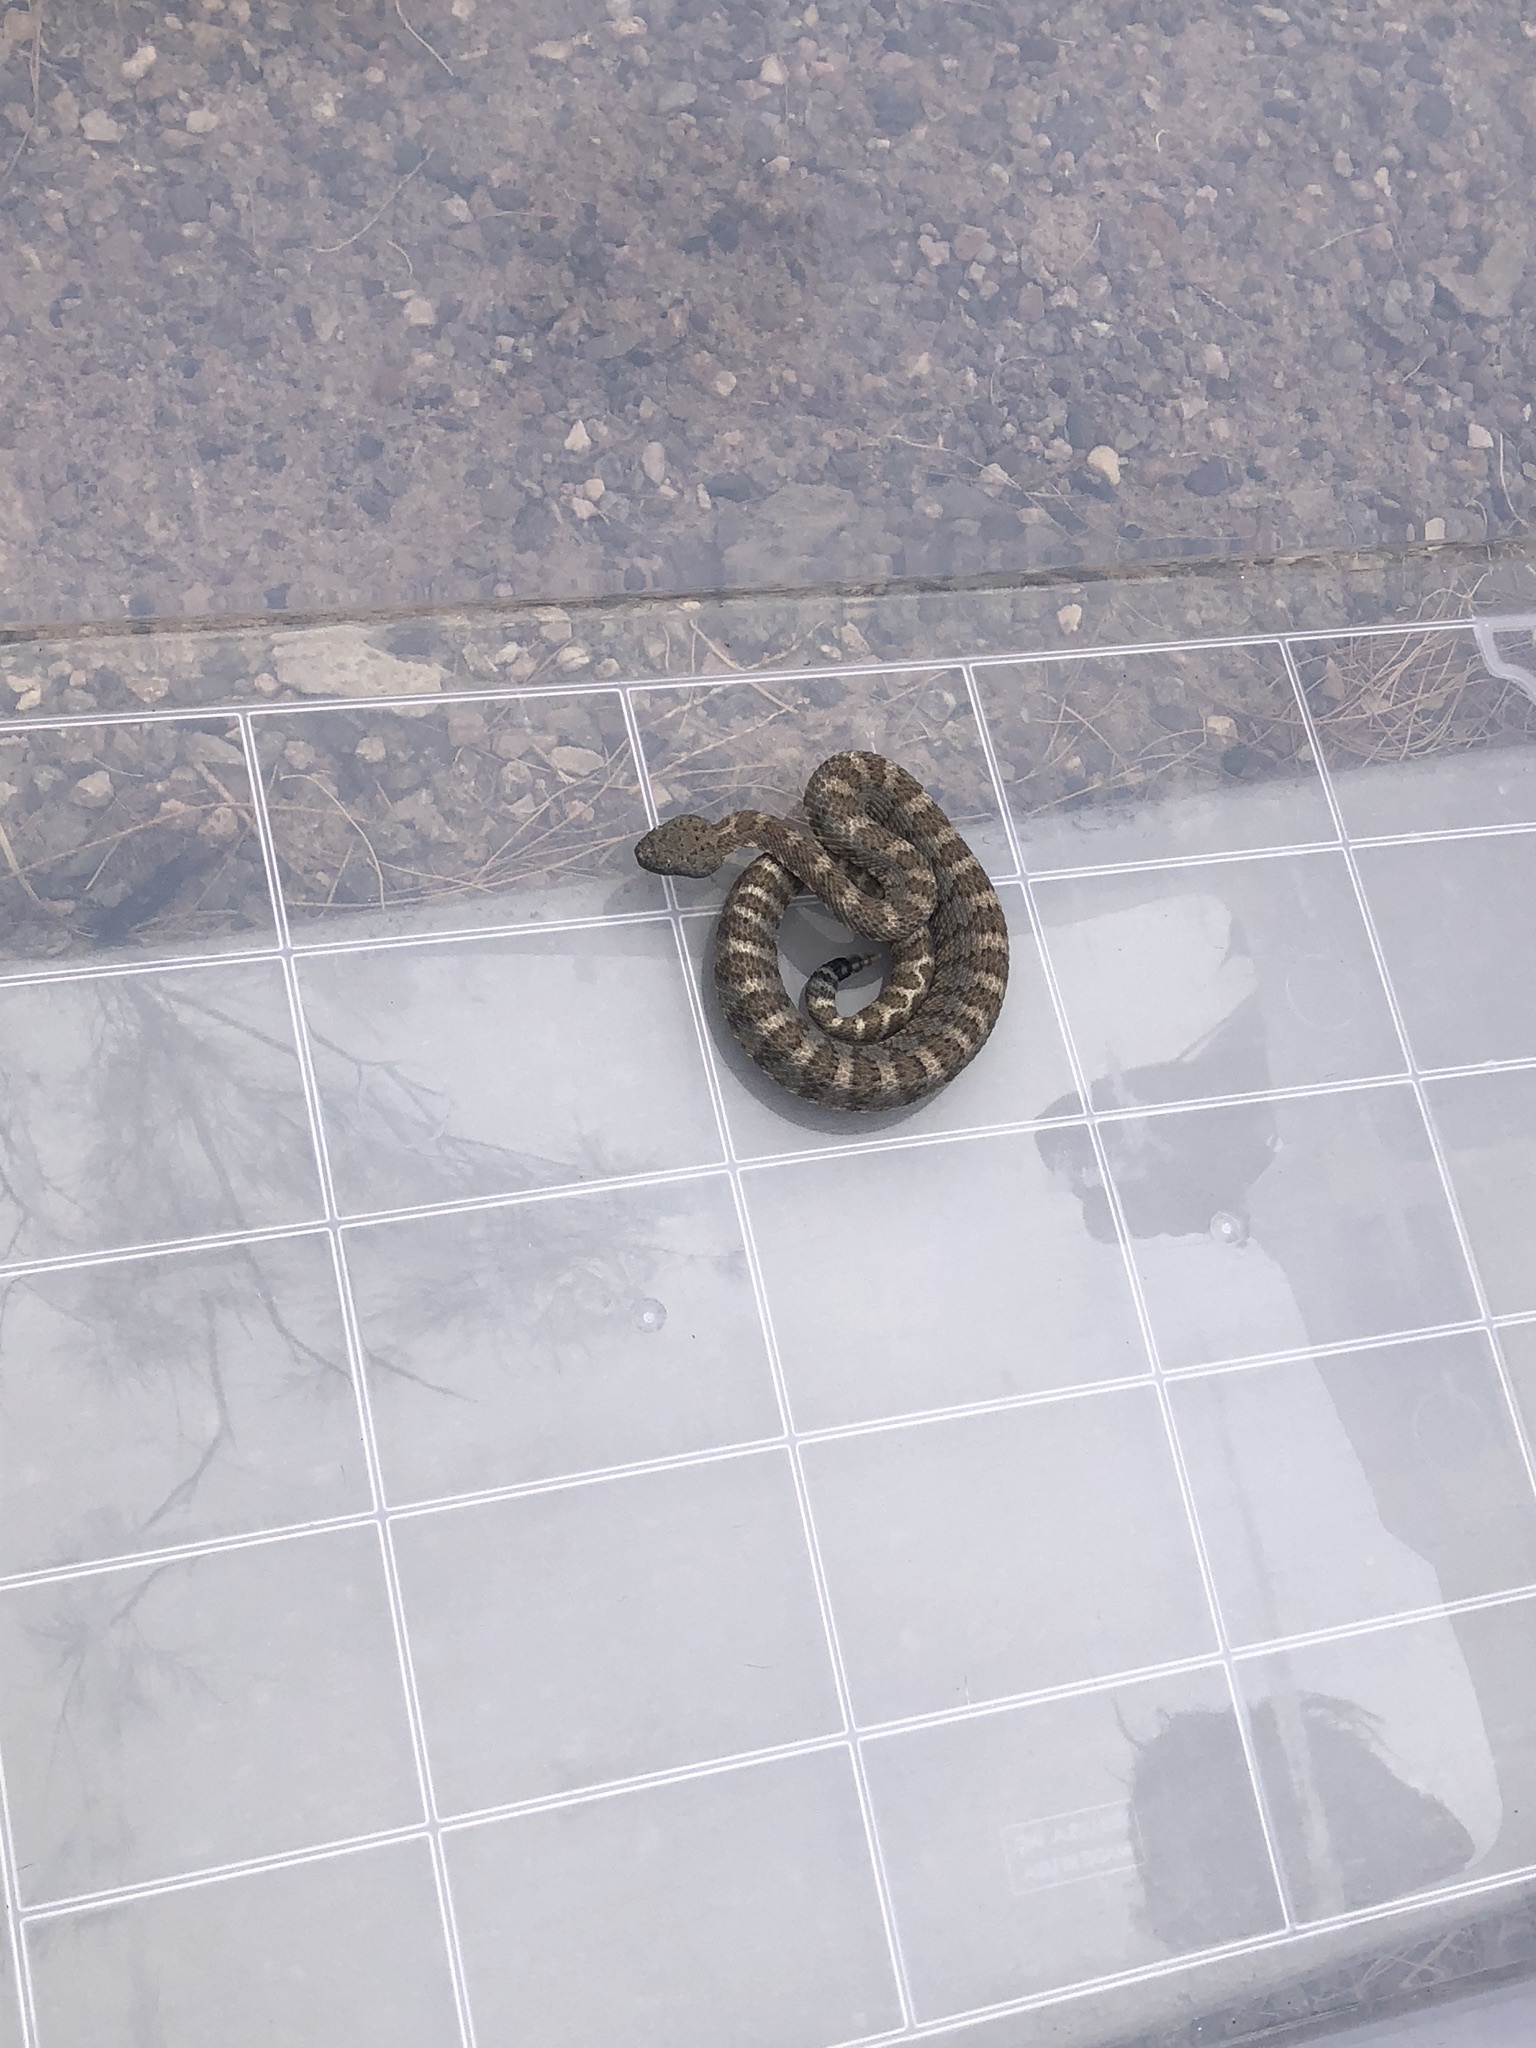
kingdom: Animalia
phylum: Chordata
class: Squamata
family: Viperidae
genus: Crotalus
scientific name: Crotalus stephensi
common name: Panamint rattlesnake
